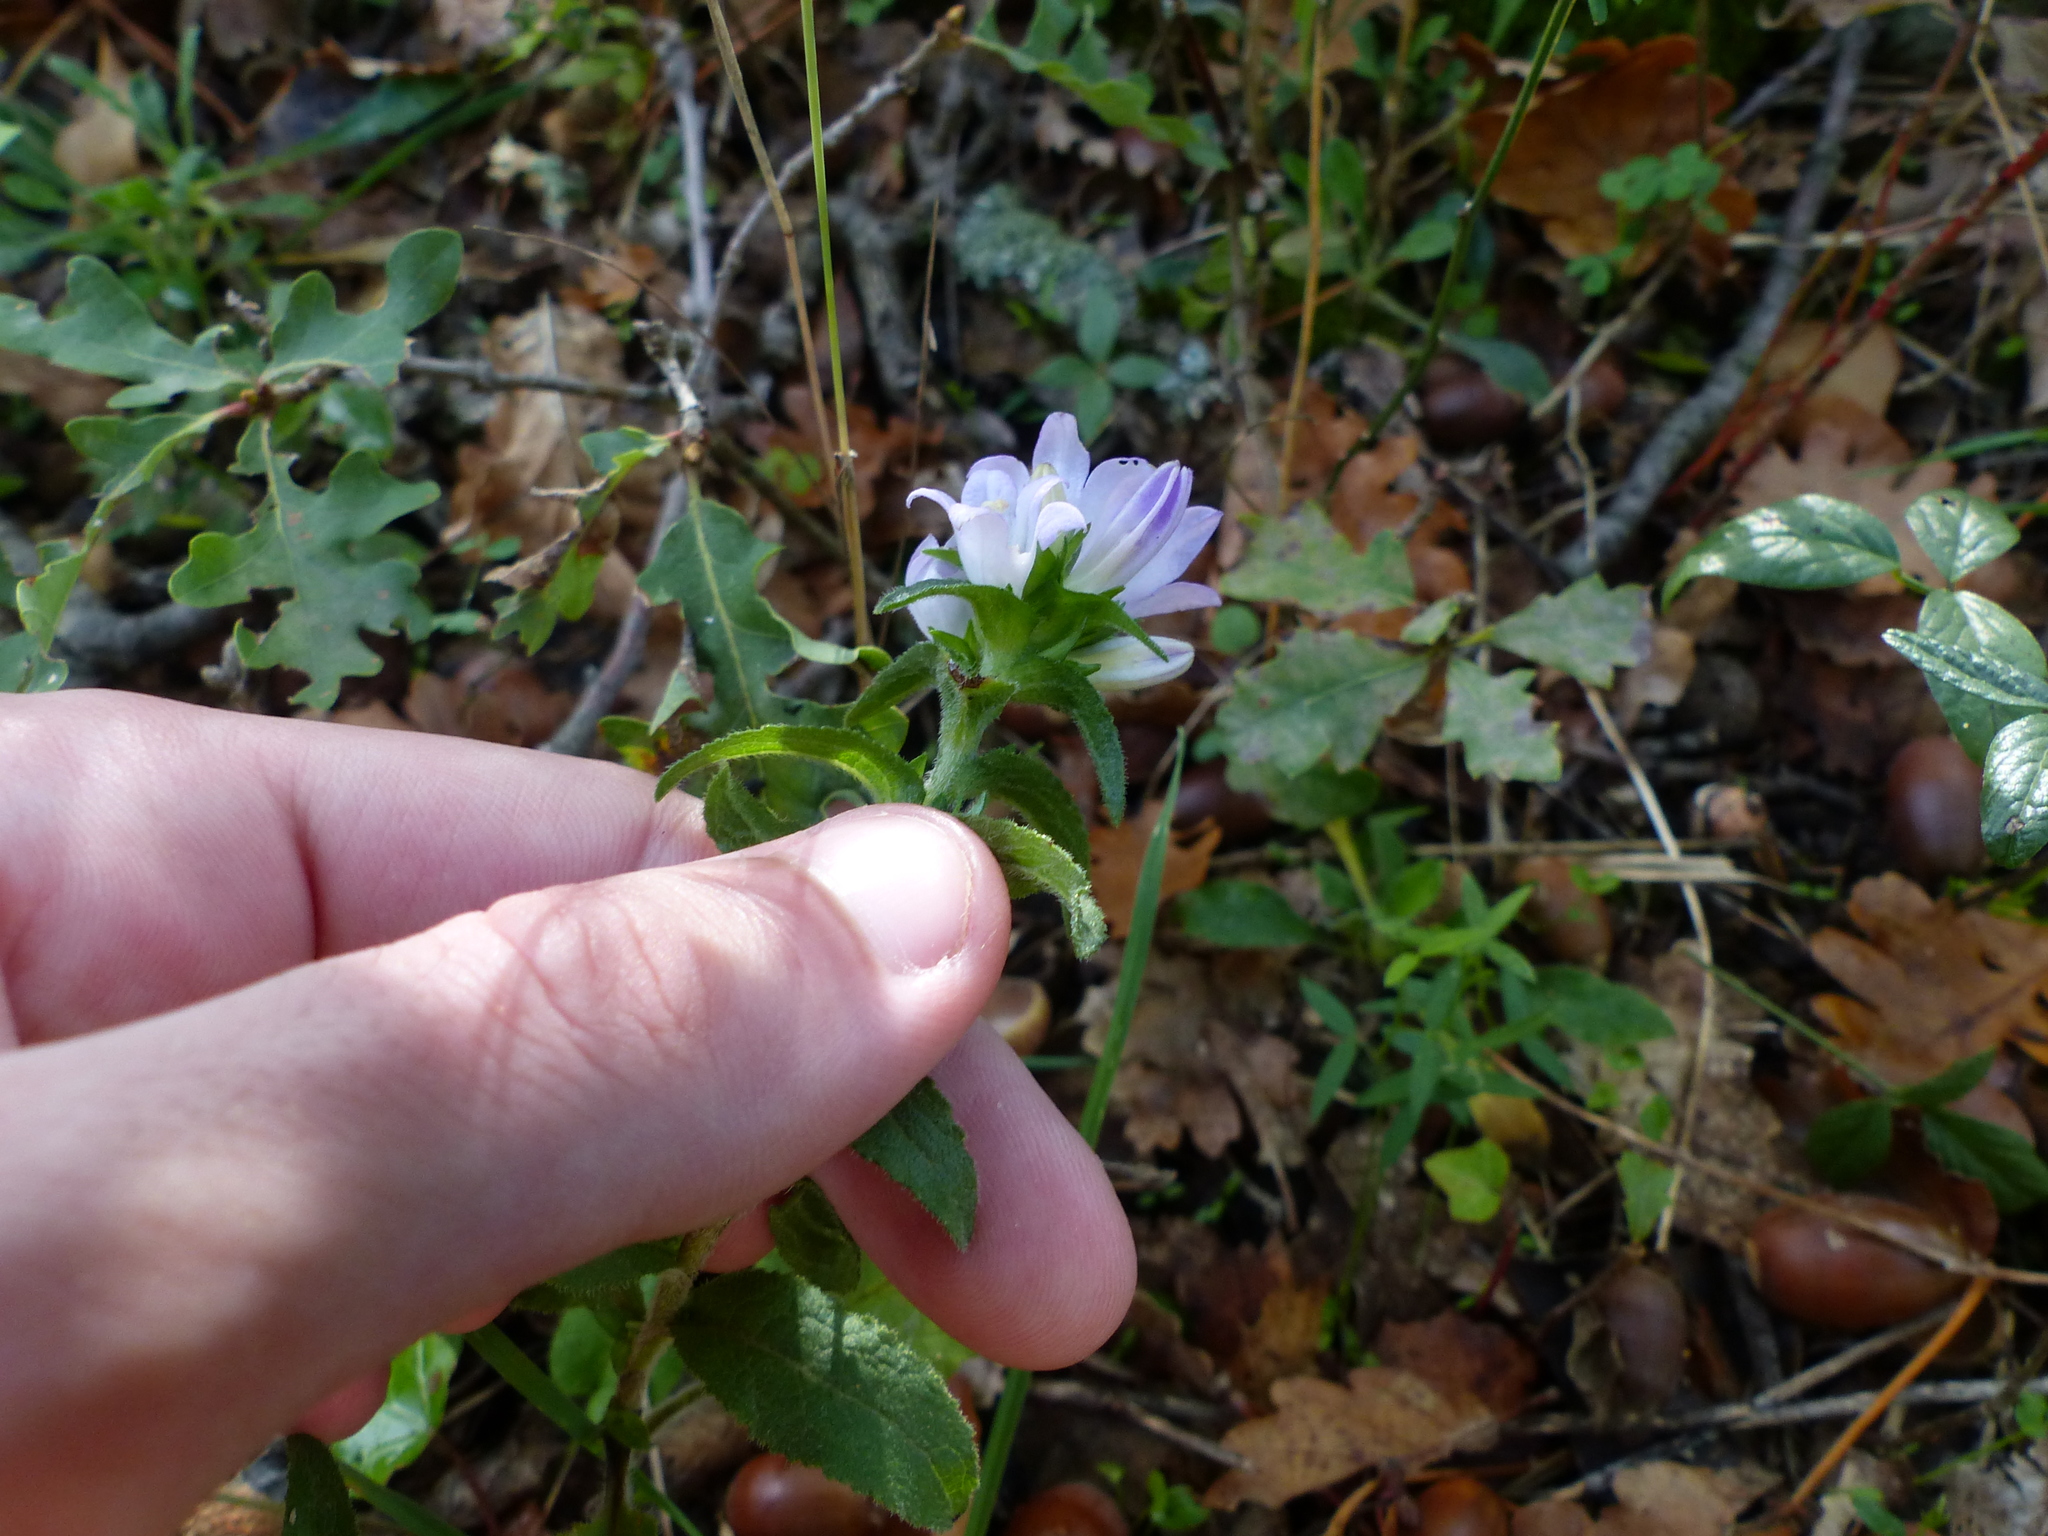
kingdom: Plantae
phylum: Tracheophyta
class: Magnoliopsida
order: Asterales
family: Campanulaceae
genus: Campanula
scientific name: Campanula glomerata
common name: Clustered bellflower
